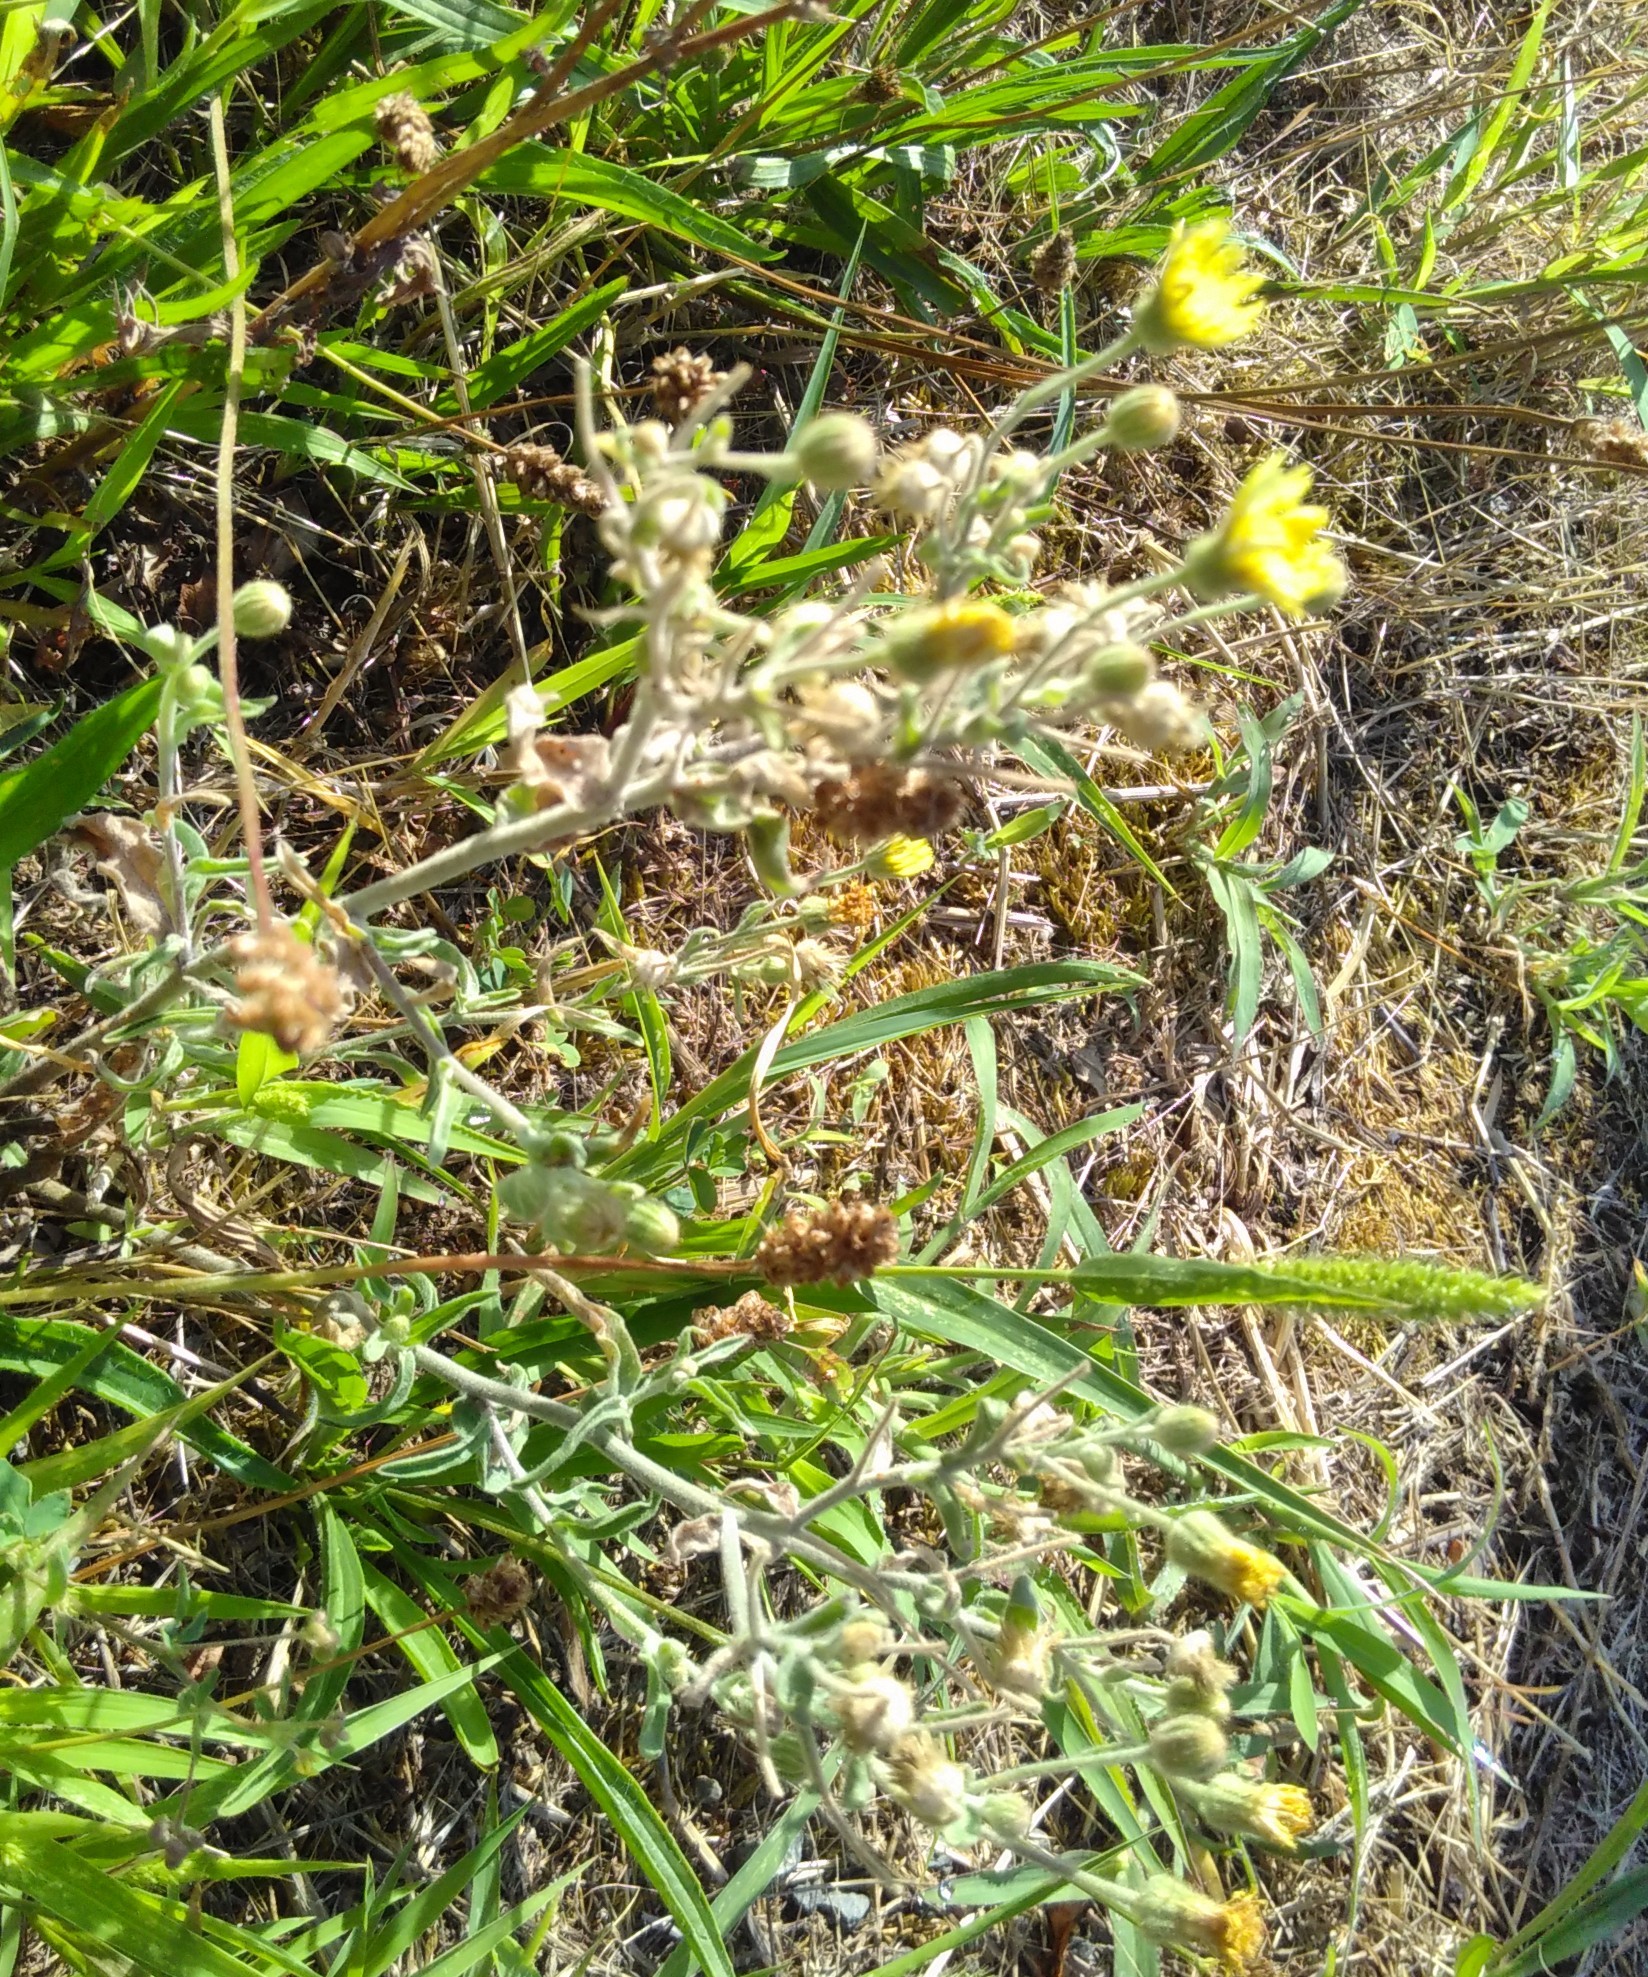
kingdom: Plantae
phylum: Tracheophyta
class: Magnoliopsida
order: Asterales
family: Asteraceae
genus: Andryala
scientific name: Andryala integrifolia
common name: Common andryala
